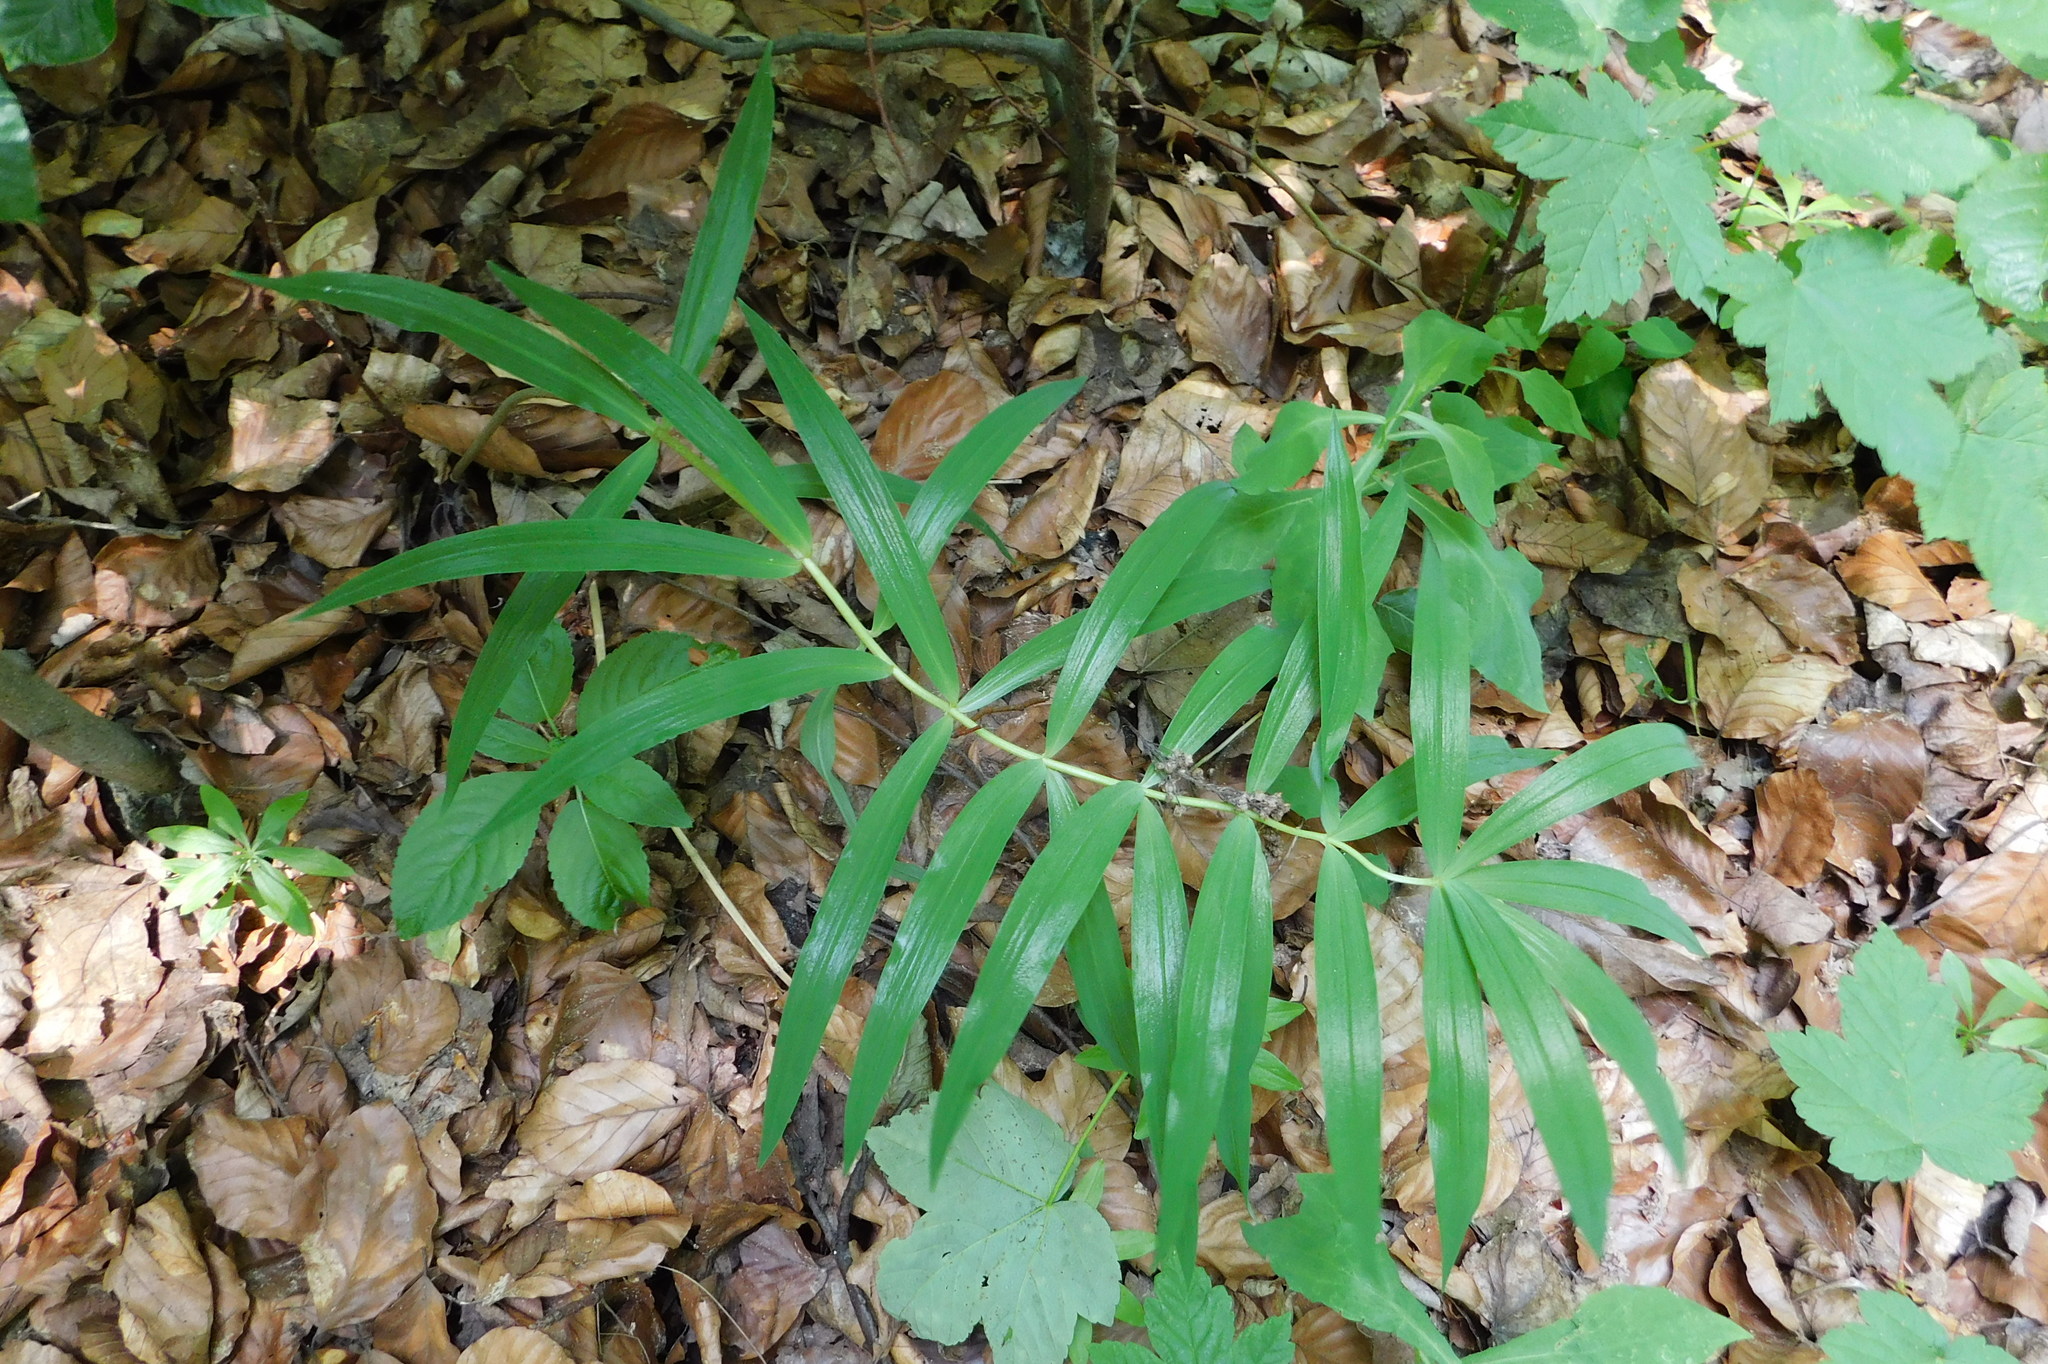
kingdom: Plantae
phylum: Tracheophyta
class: Liliopsida
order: Asparagales
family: Asparagaceae
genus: Polygonatum
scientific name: Polygonatum verticillatum
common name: Whorled solomon's-seal
